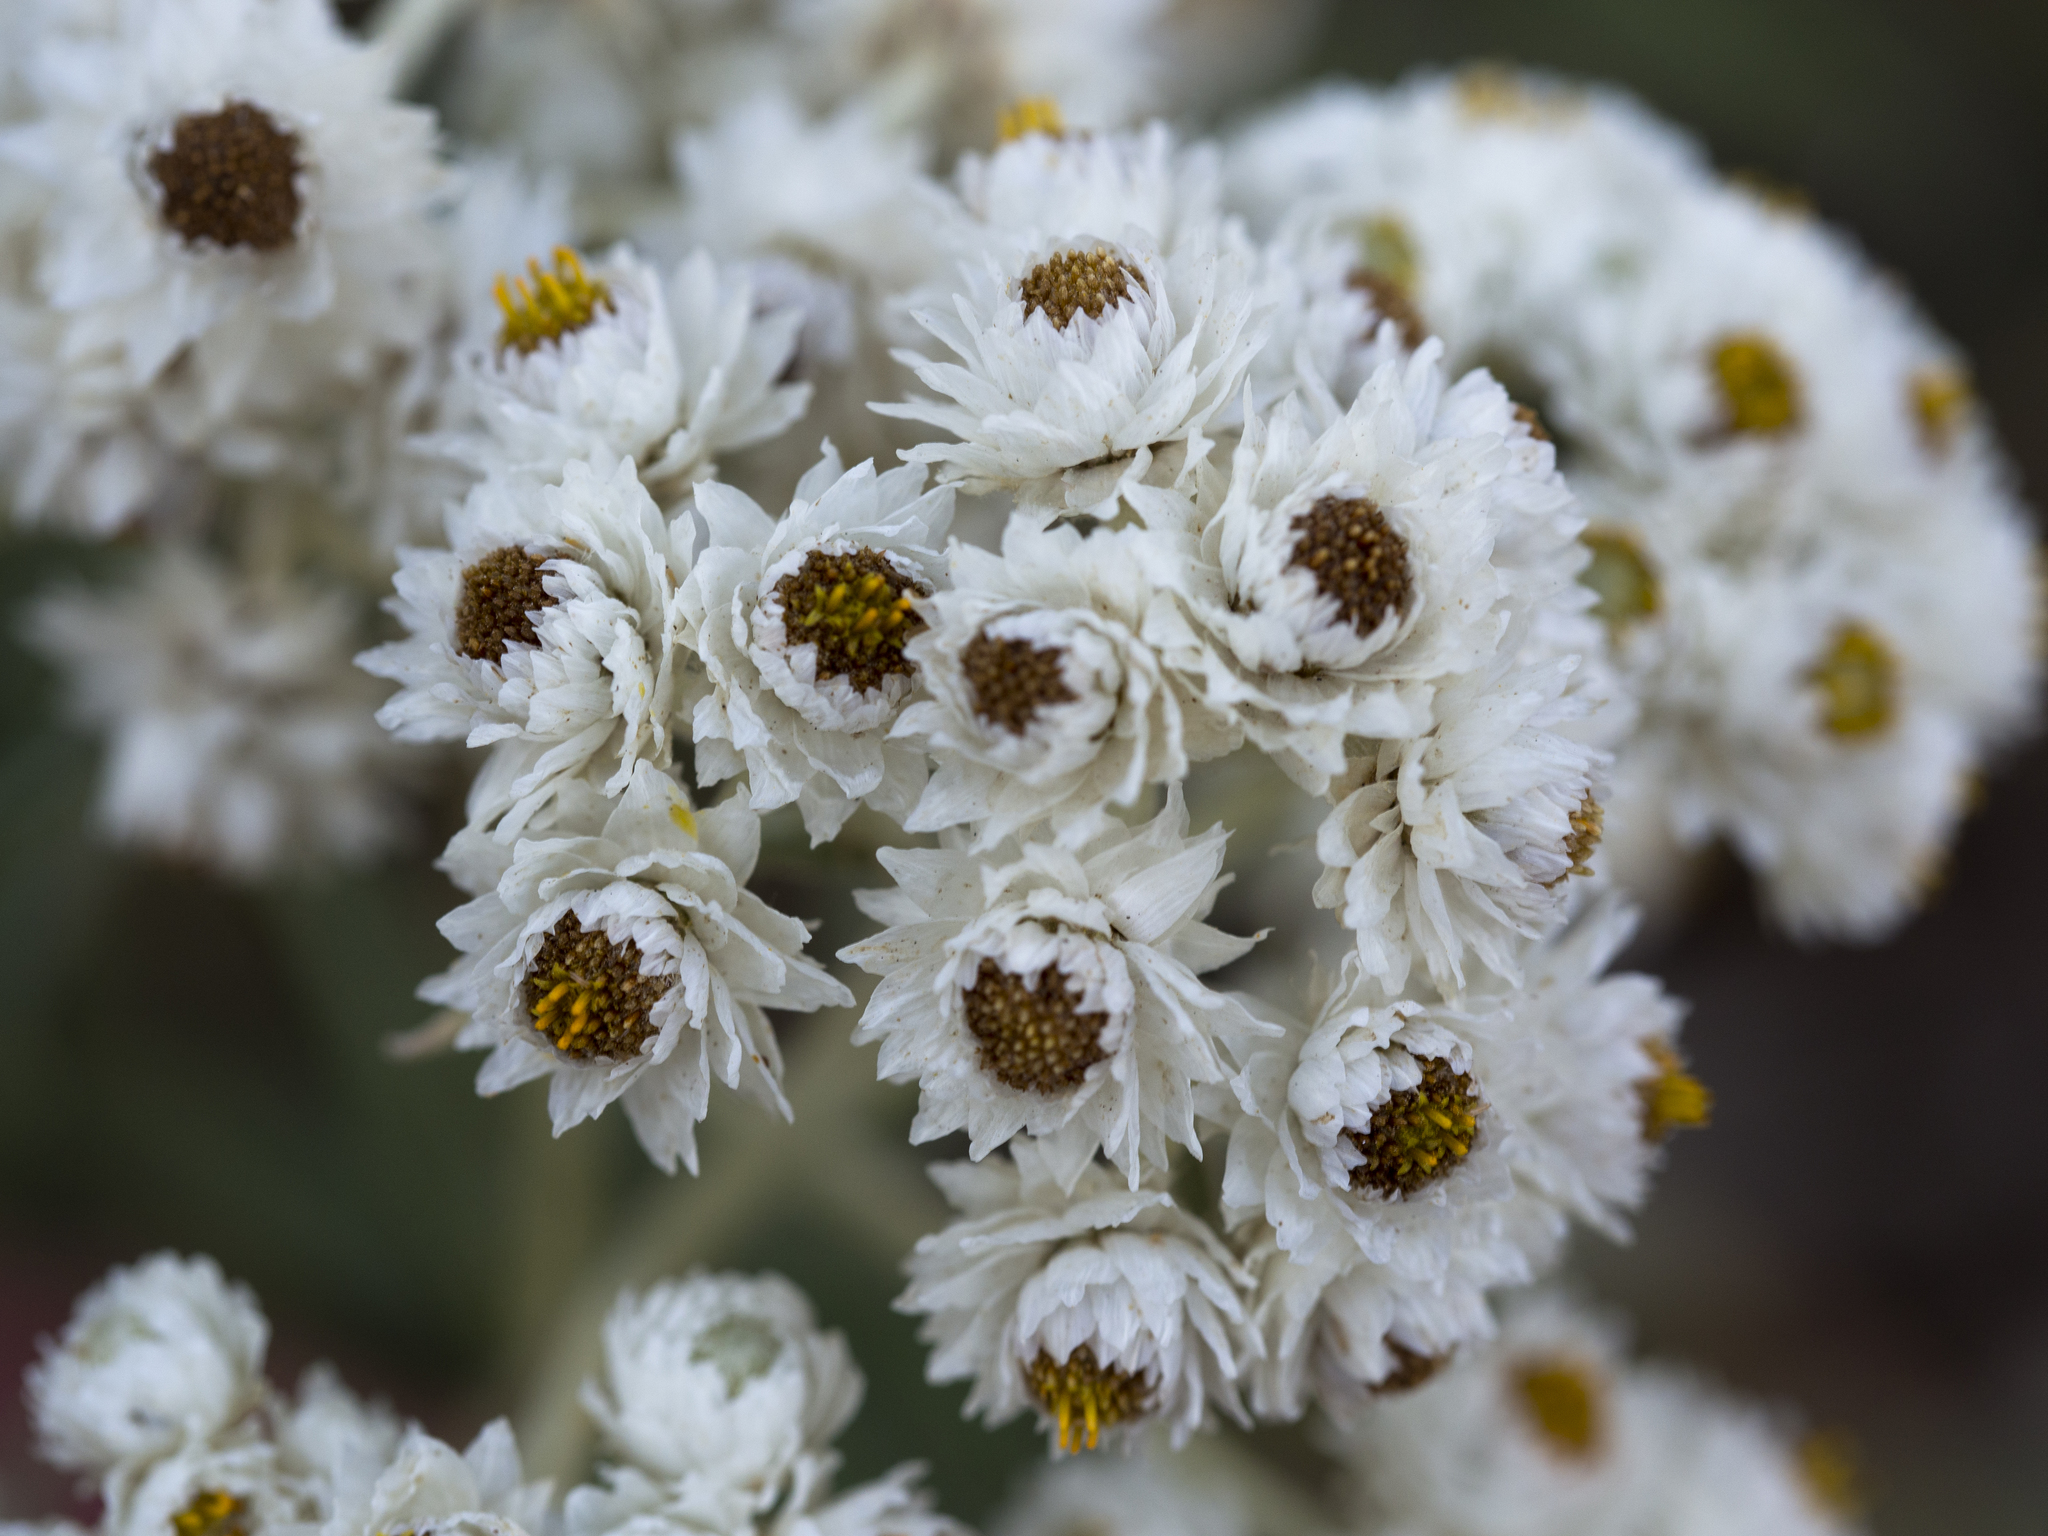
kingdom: Plantae
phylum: Tracheophyta
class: Magnoliopsida
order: Asterales
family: Asteraceae
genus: Anaphalis
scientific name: Anaphalis margaritacea
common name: Pearly everlasting
